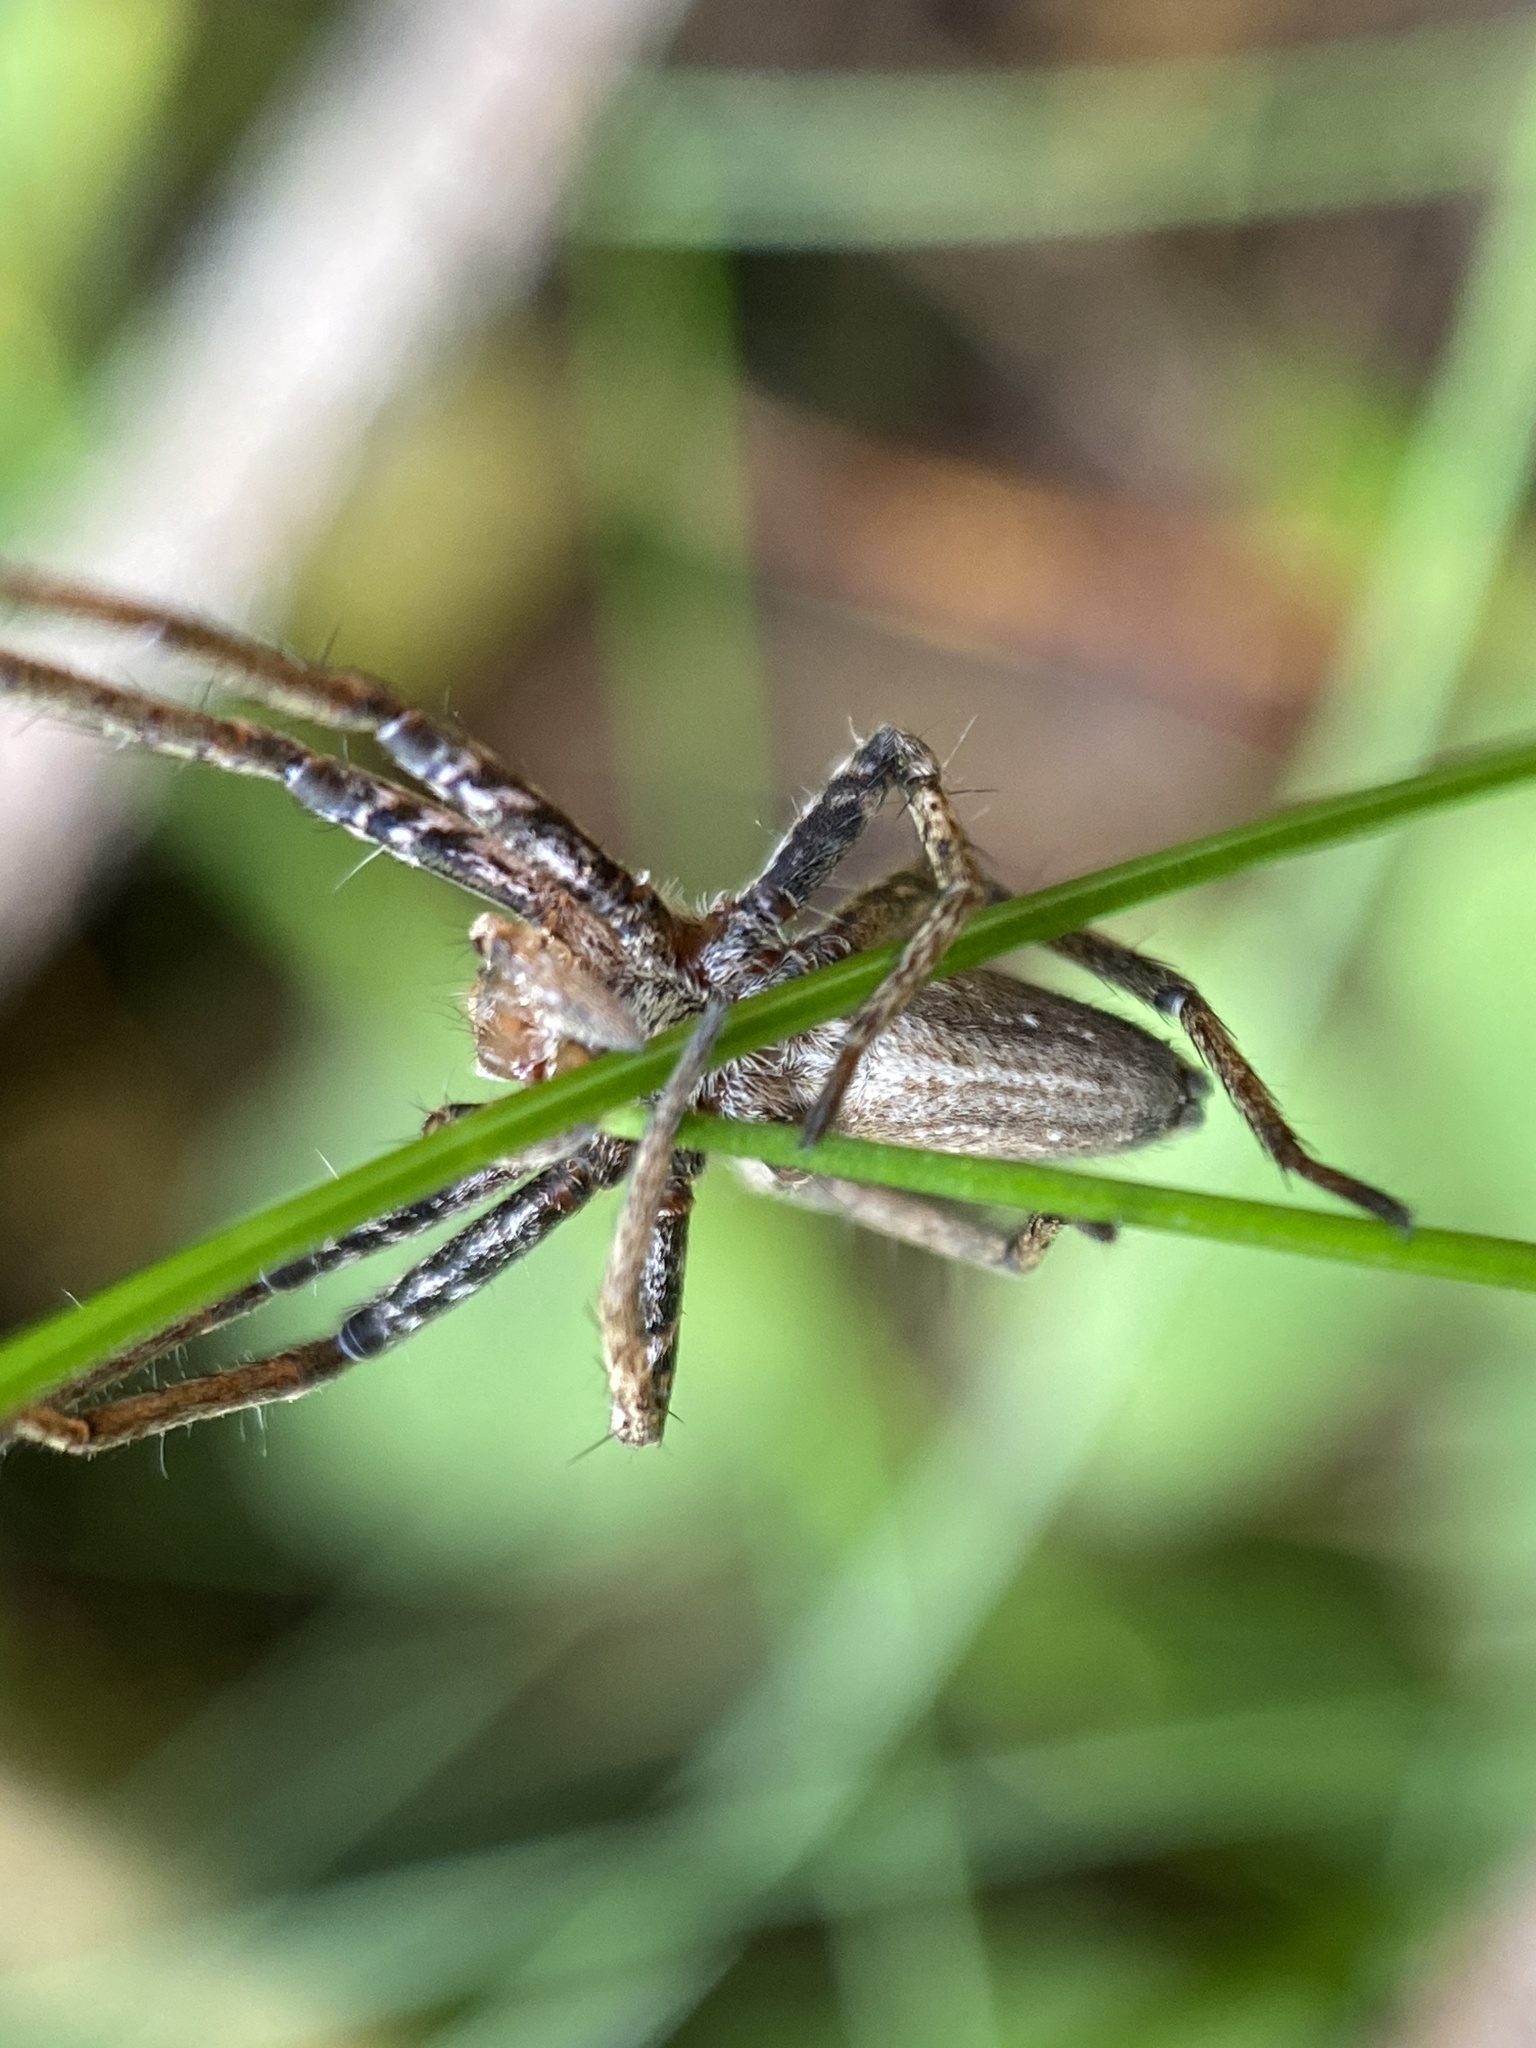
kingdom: Animalia
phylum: Arthropoda
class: Arachnida
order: Araneae
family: Pisauridae
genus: Pisaura
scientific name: Pisaura mirabilis
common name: Tent spider
